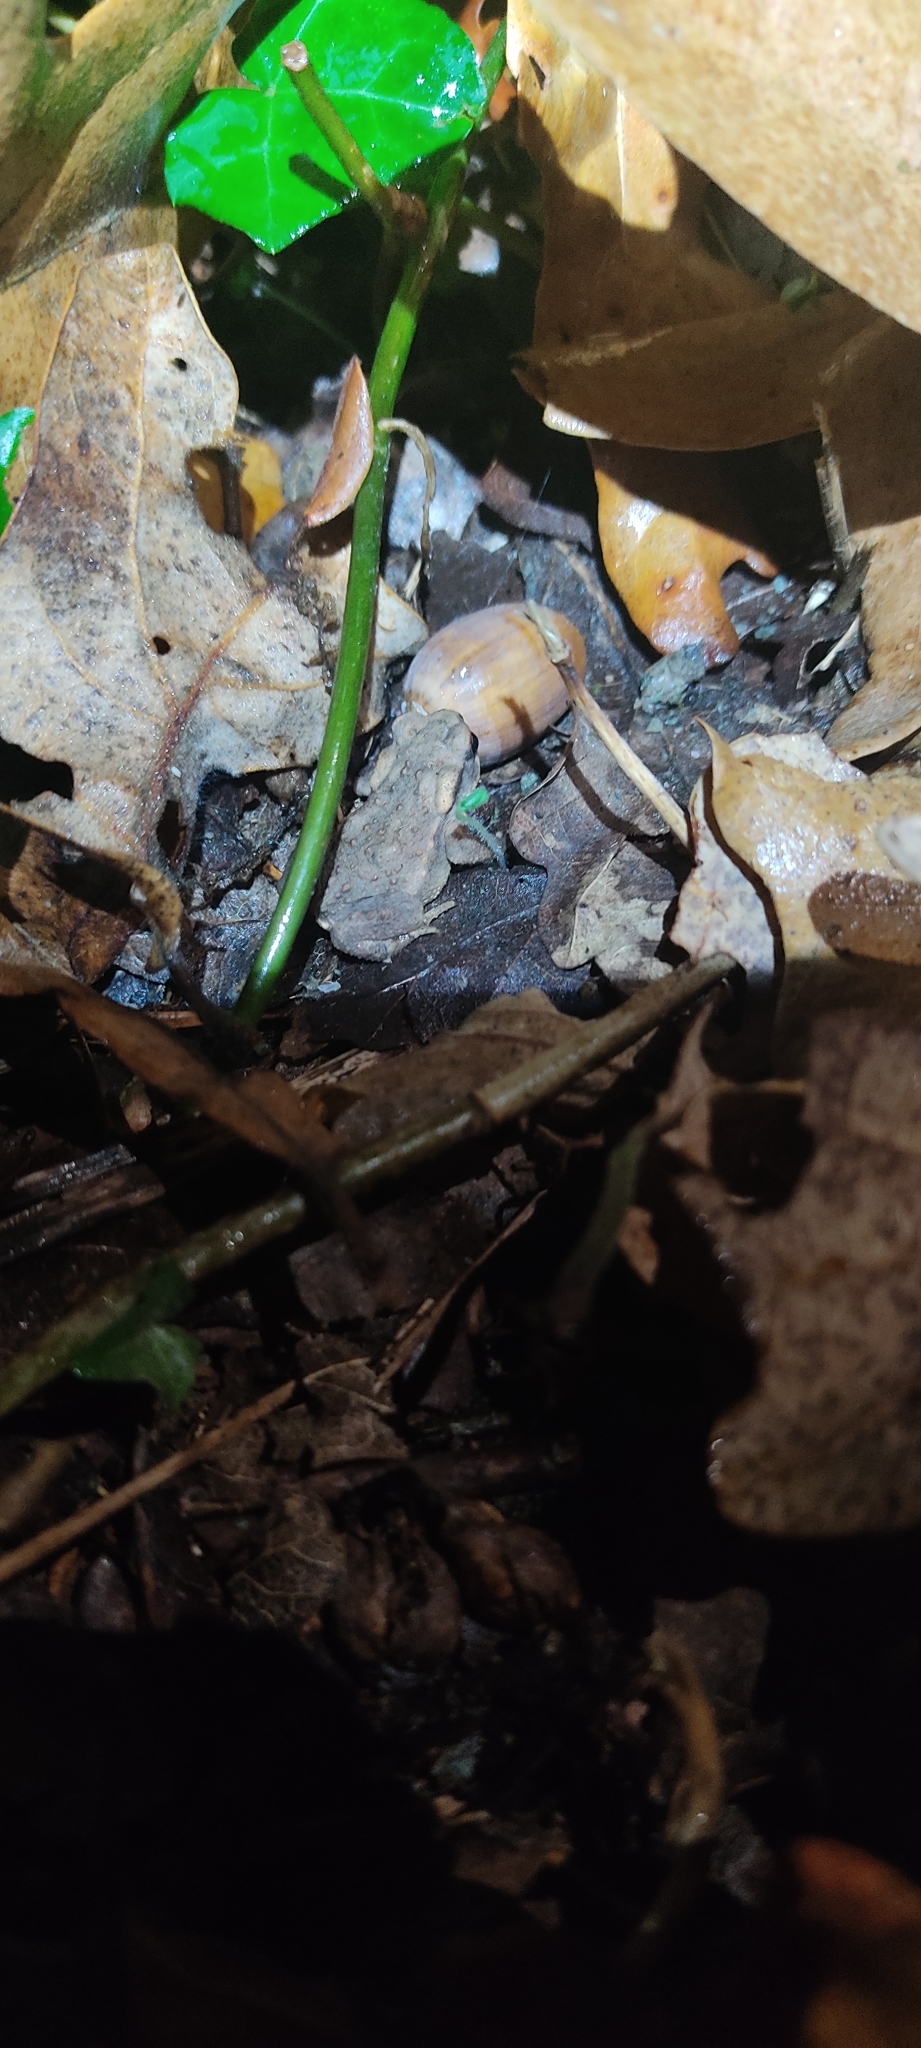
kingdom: Animalia
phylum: Chordata
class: Amphibia
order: Anura
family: Bufonidae
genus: Bufo
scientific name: Bufo spinosus
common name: Western common toad
